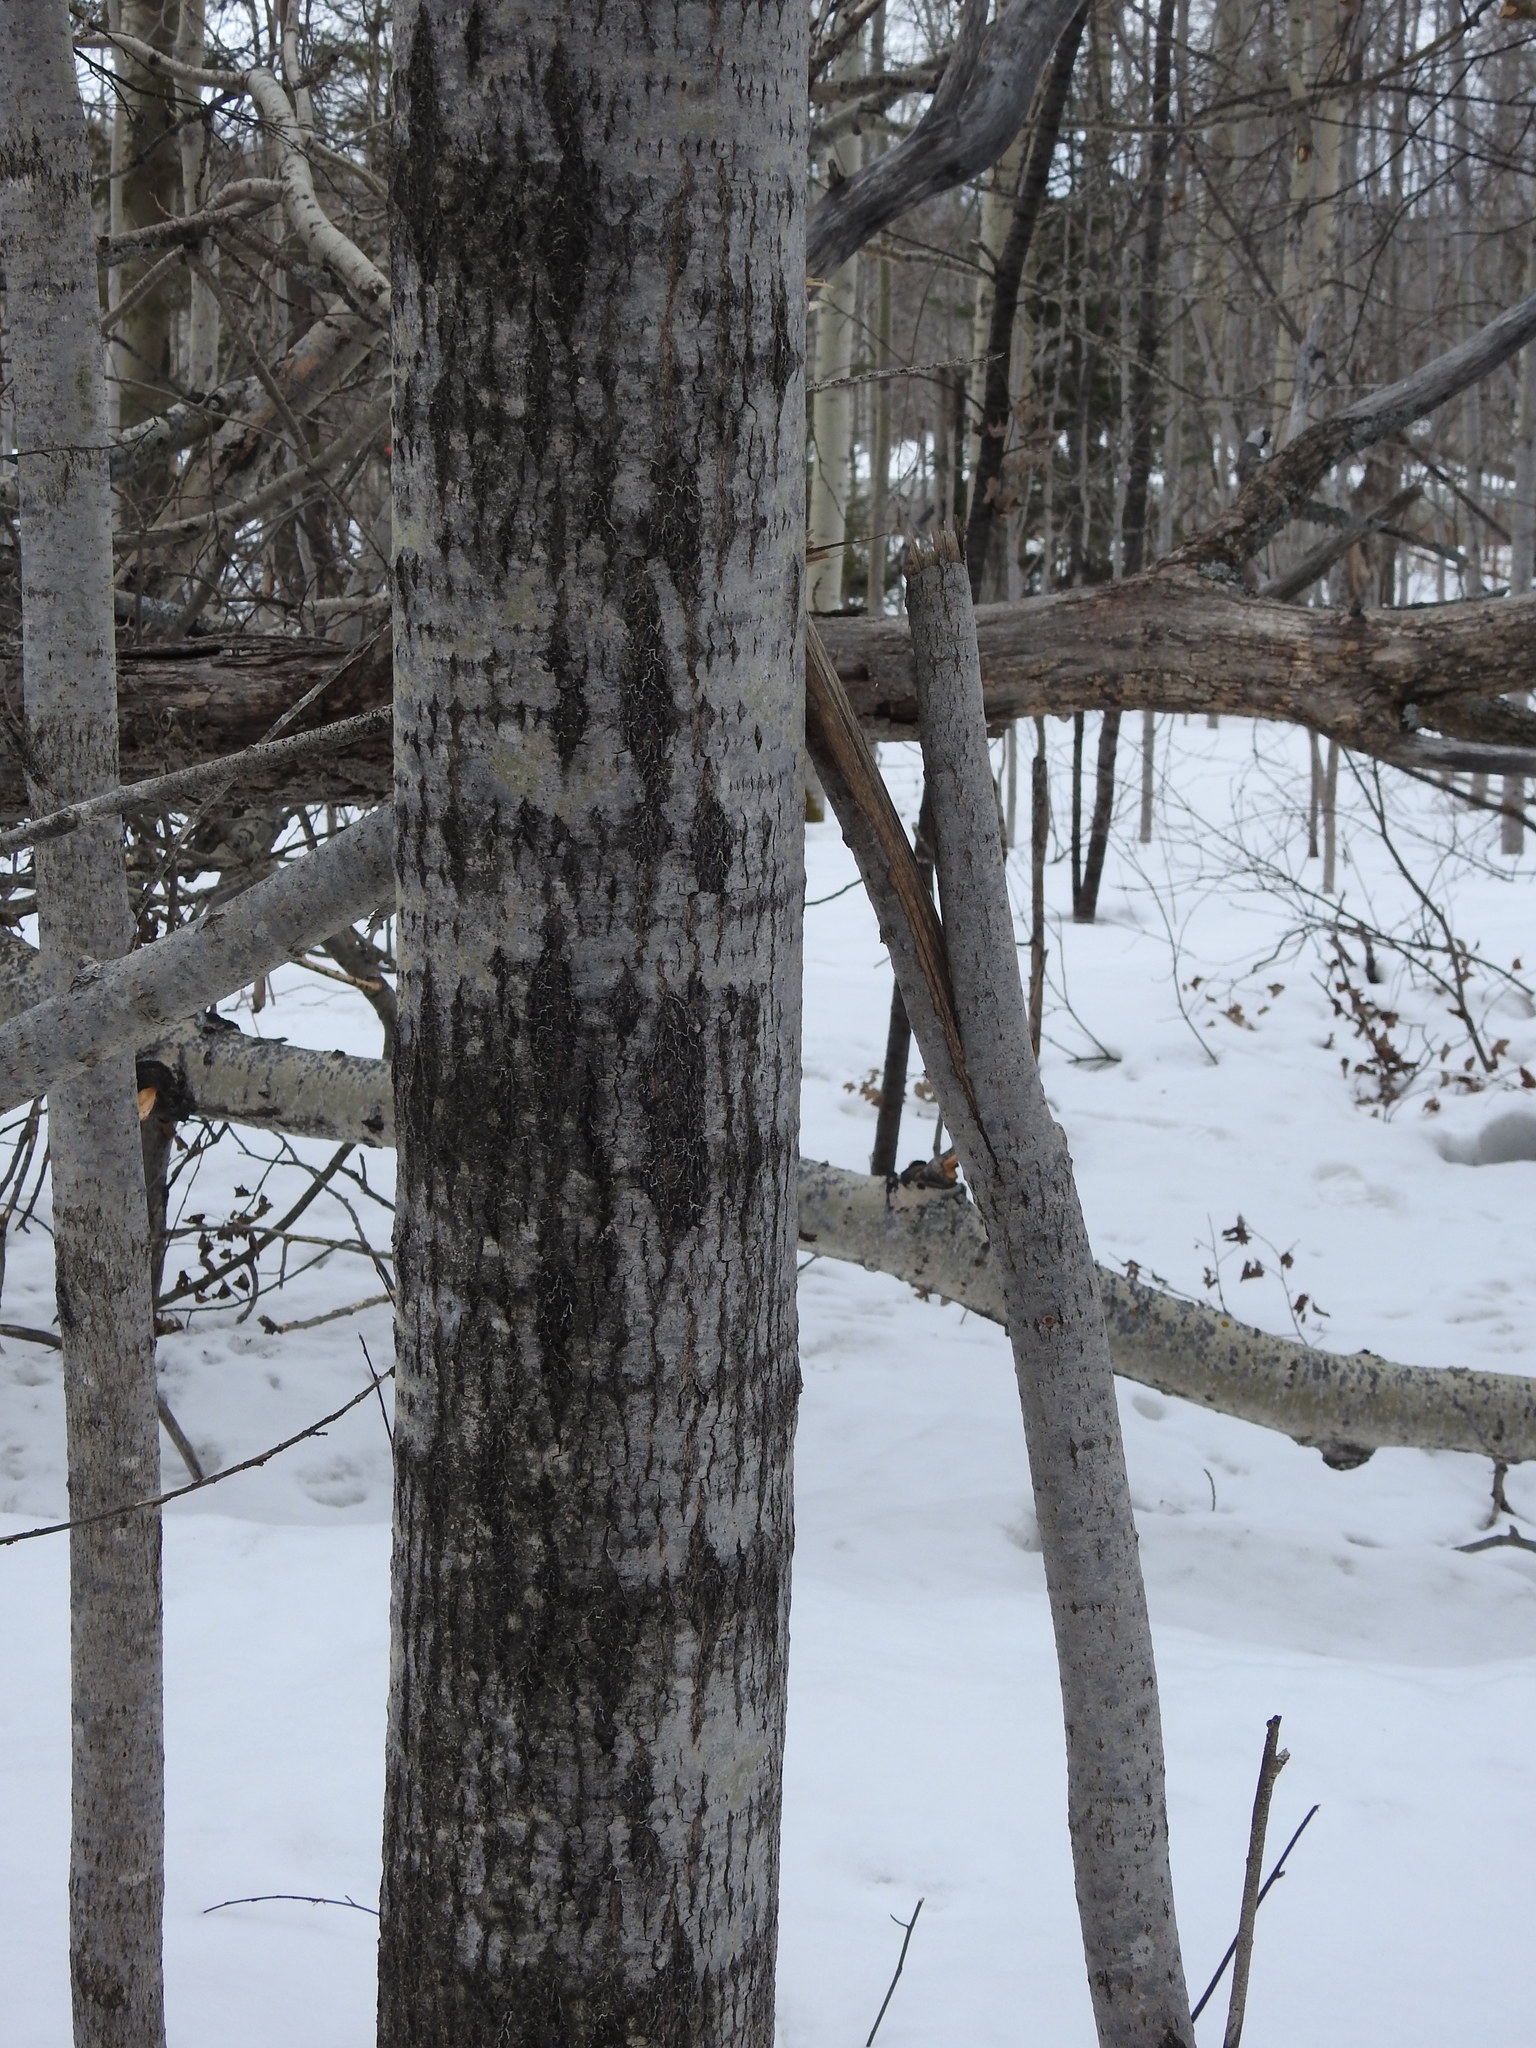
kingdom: Plantae
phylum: Tracheophyta
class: Magnoliopsida
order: Malpighiales
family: Salicaceae
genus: Populus
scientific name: Populus tremuloides
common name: Quaking aspen
